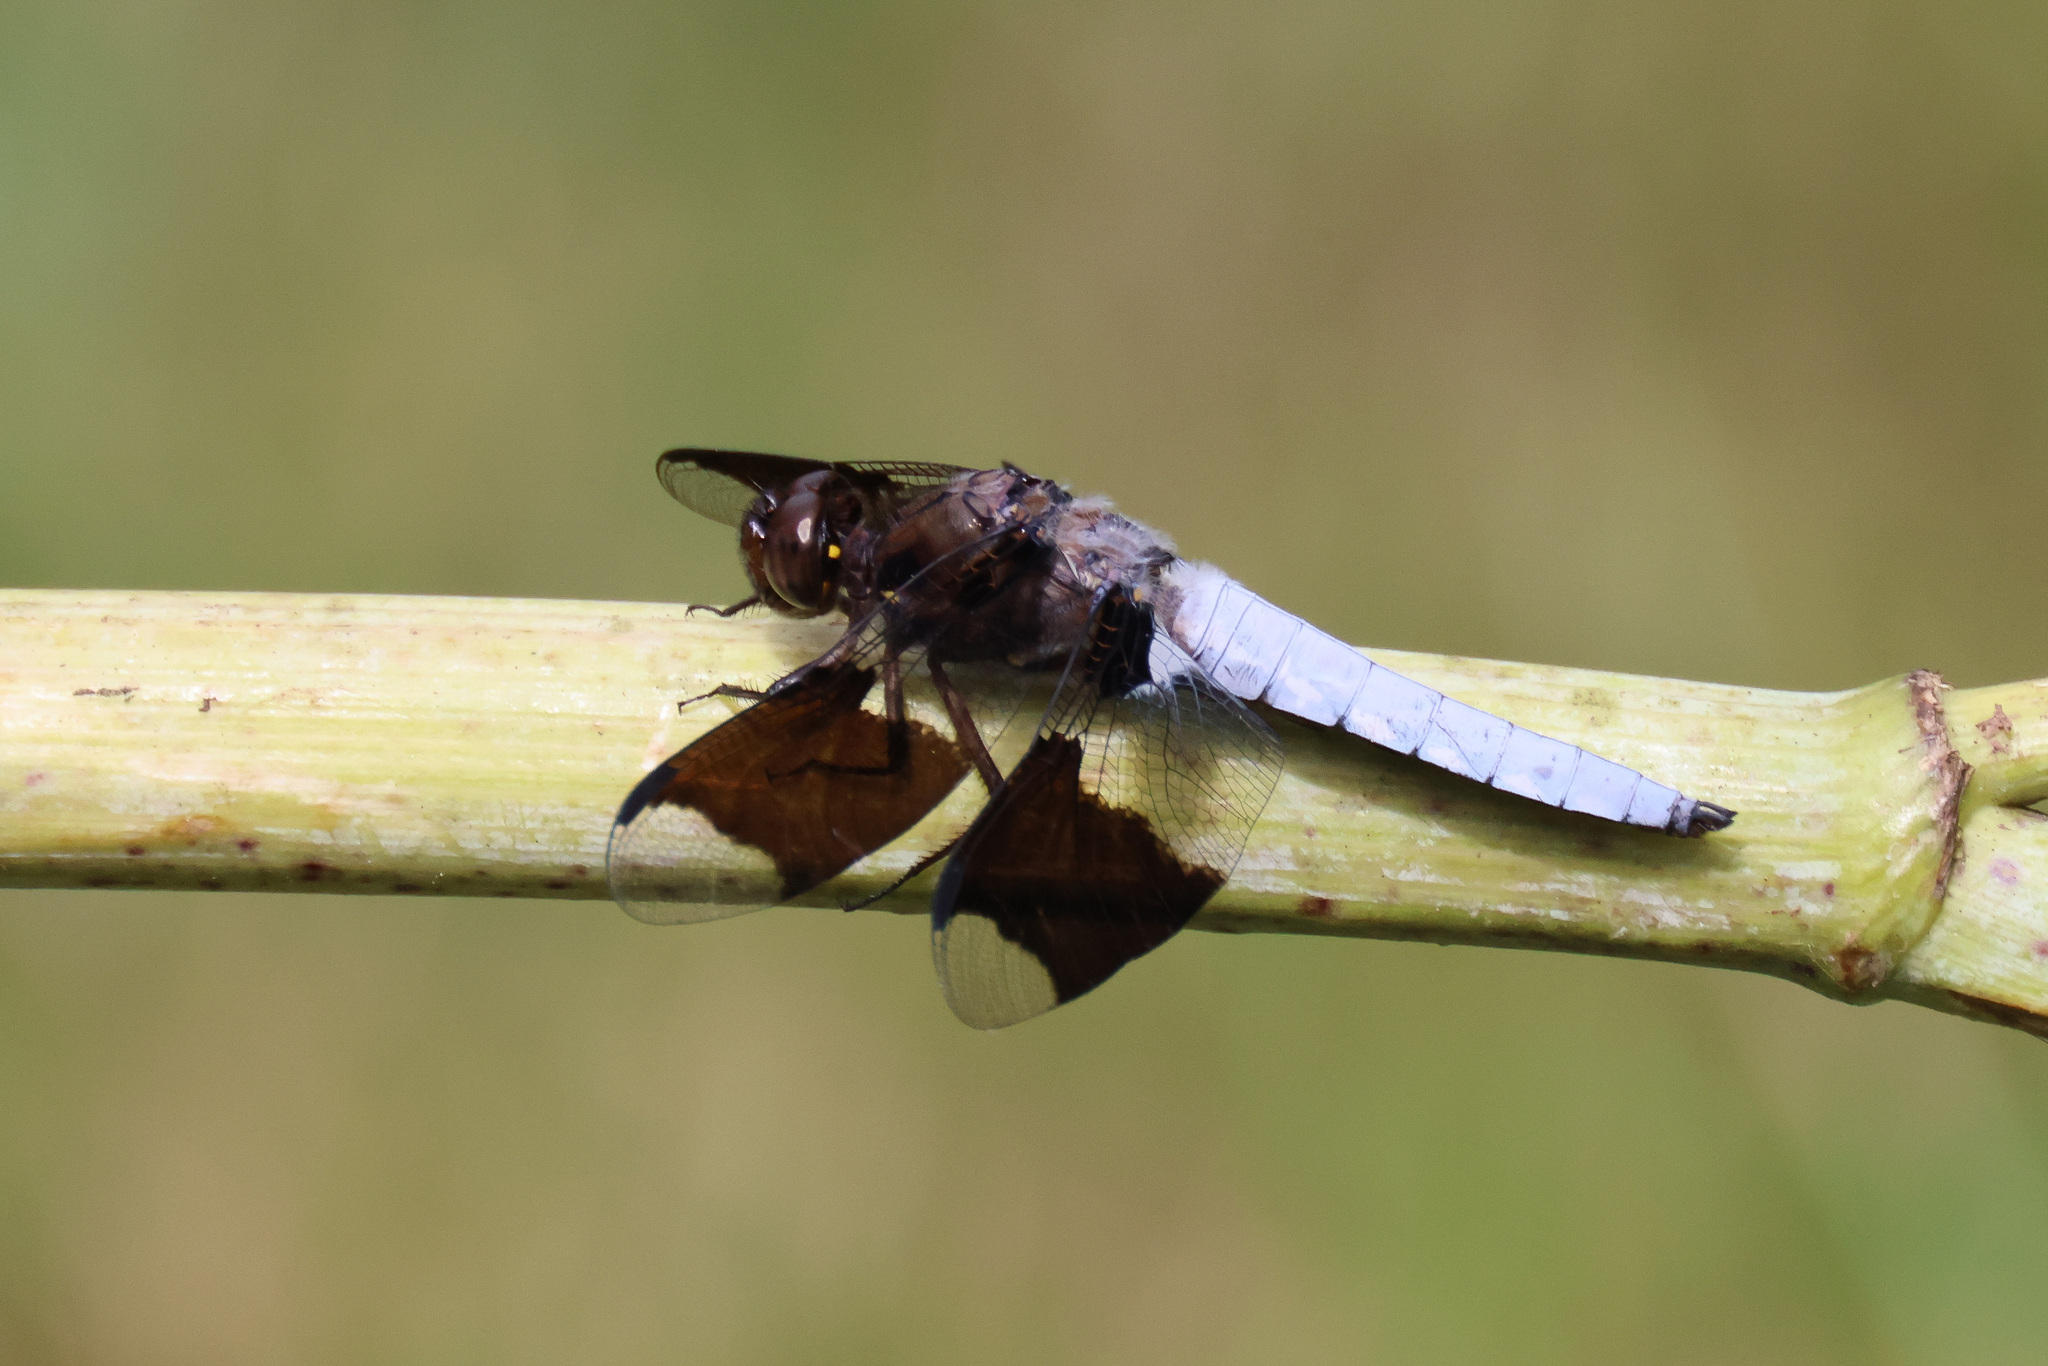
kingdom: Animalia
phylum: Arthropoda
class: Insecta
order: Odonata
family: Libellulidae
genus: Plathemis
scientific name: Plathemis lydia
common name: Common whitetail
